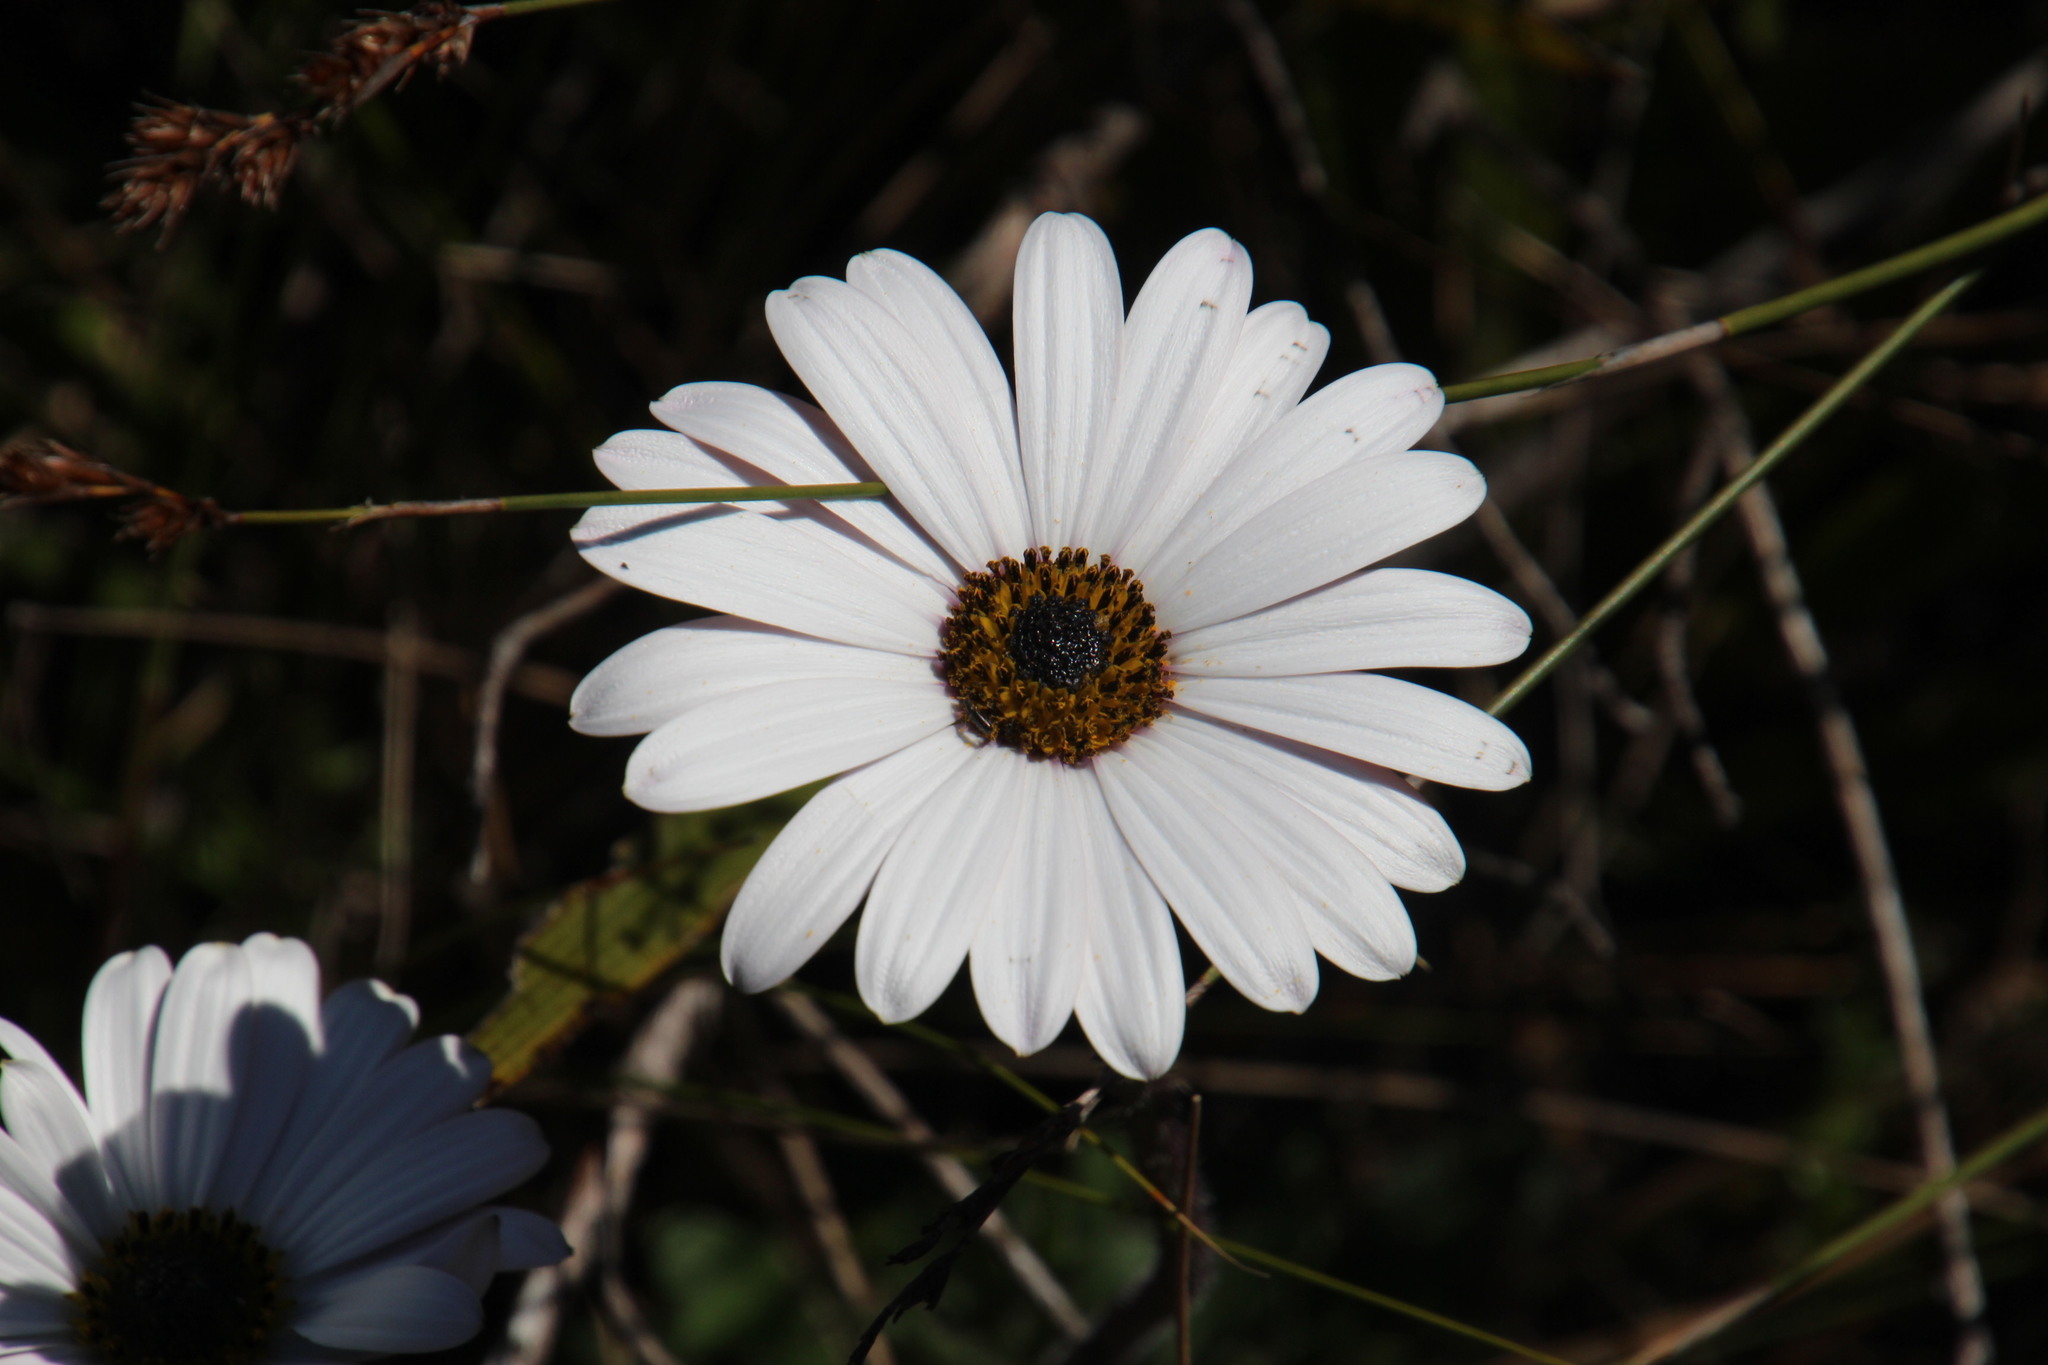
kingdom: Plantae
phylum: Tracheophyta
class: Magnoliopsida
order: Asterales
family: Asteraceae
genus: Dimorphotheca
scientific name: Dimorphotheca nudicaulis
